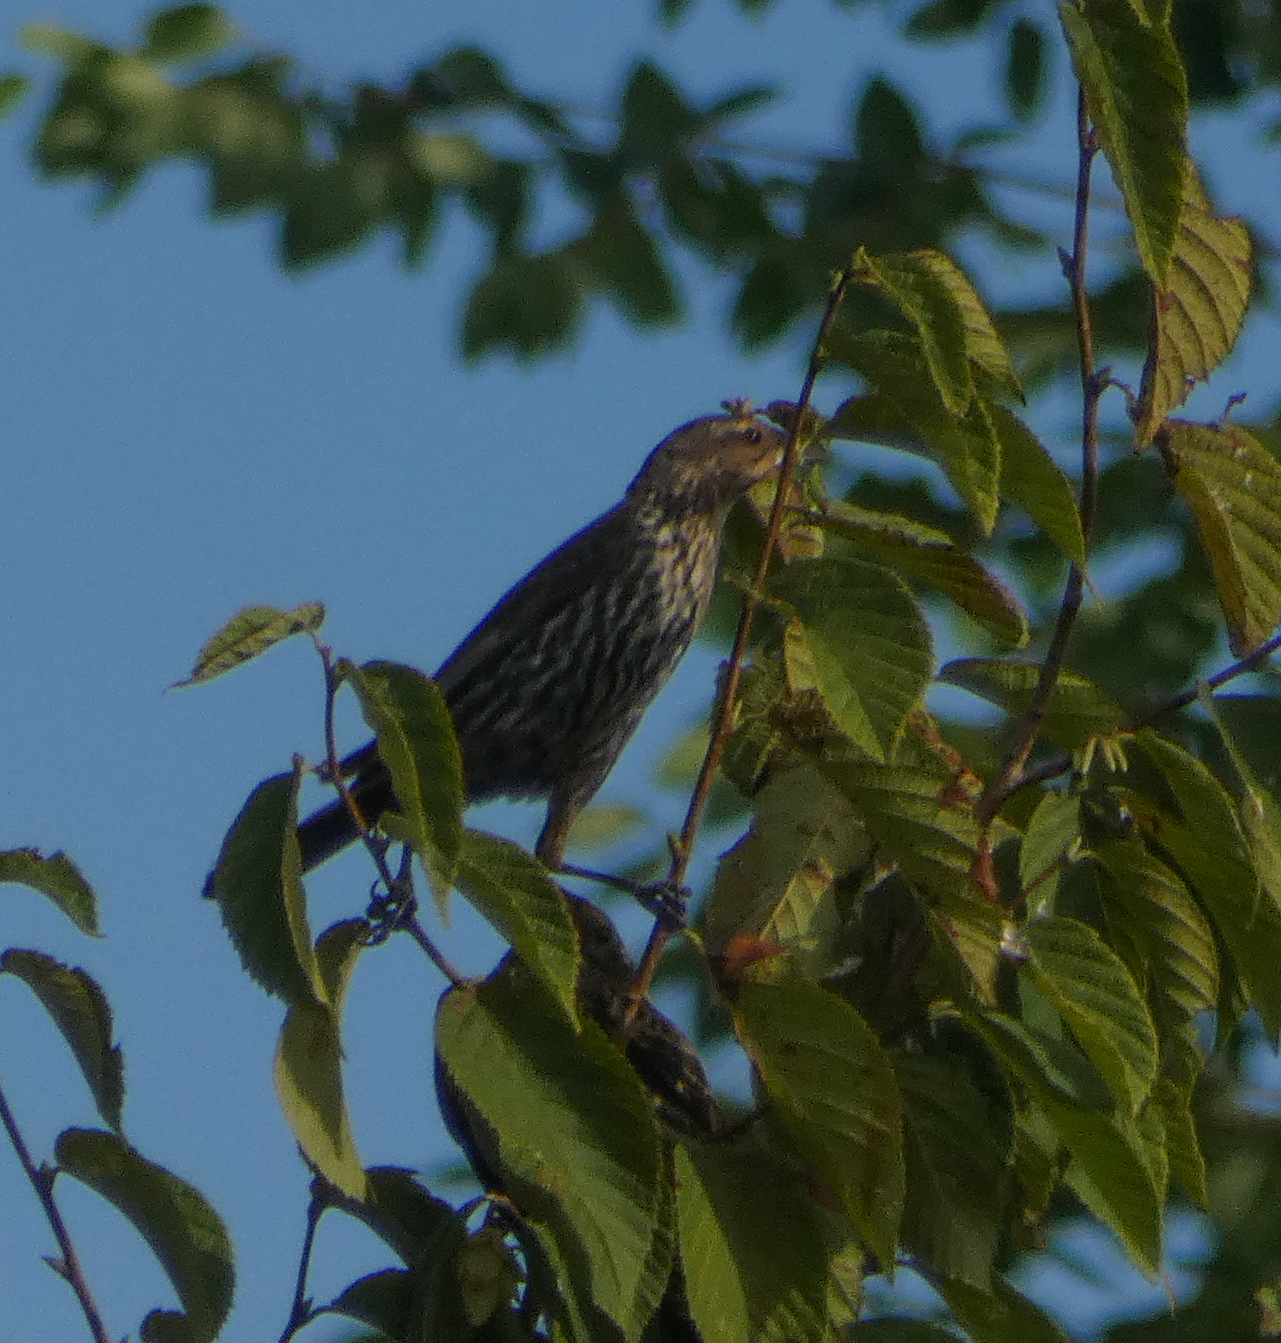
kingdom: Animalia
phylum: Chordata
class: Aves
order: Passeriformes
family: Icteridae
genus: Agelaius
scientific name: Agelaius phoeniceus
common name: Red-winged blackbird
